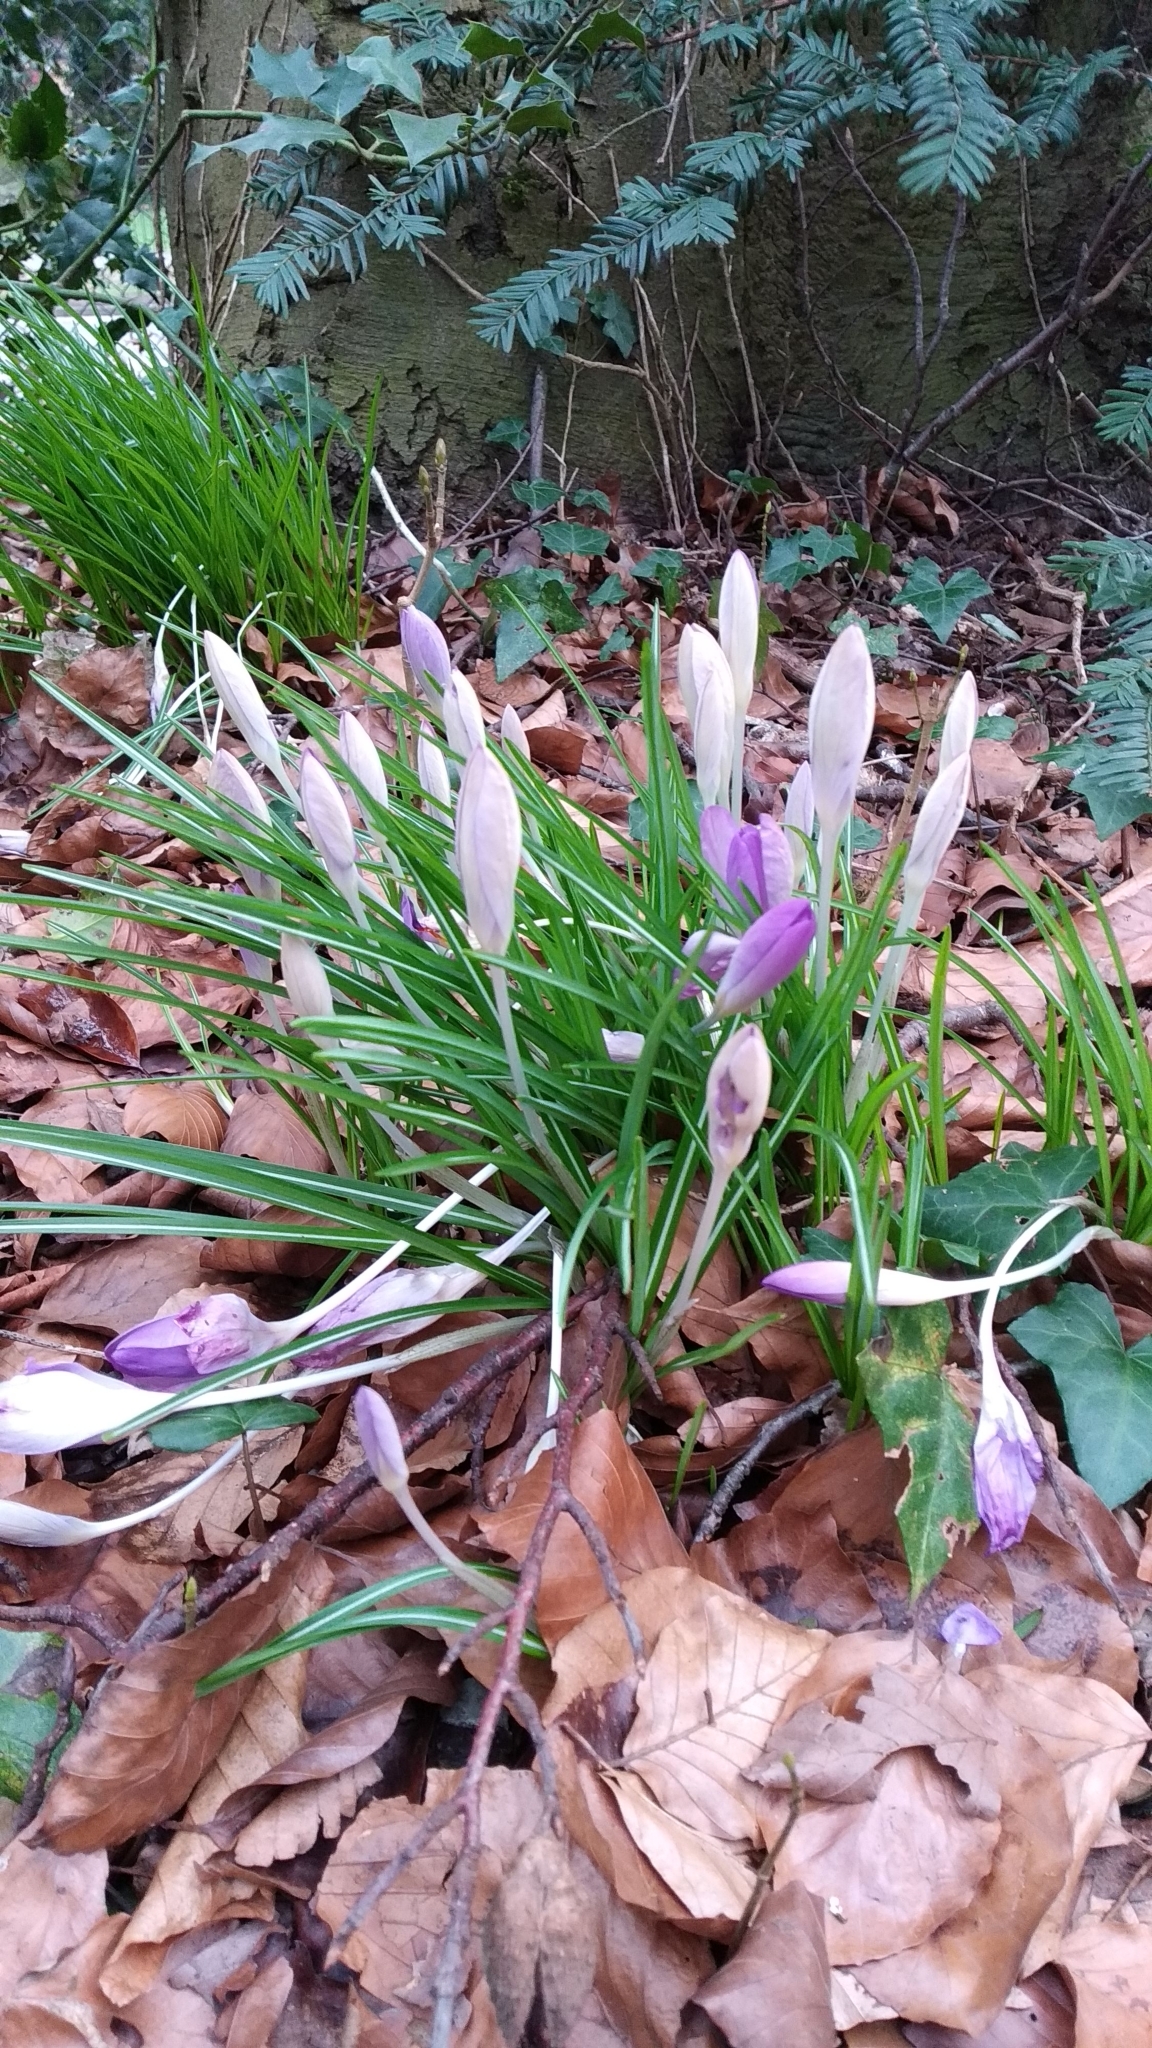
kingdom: Plantae
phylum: Tracheophyta
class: Liliopsida
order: Asparagales
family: Iridaceae
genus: Crocus
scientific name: Crocus tommasinianus
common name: Early crocus
